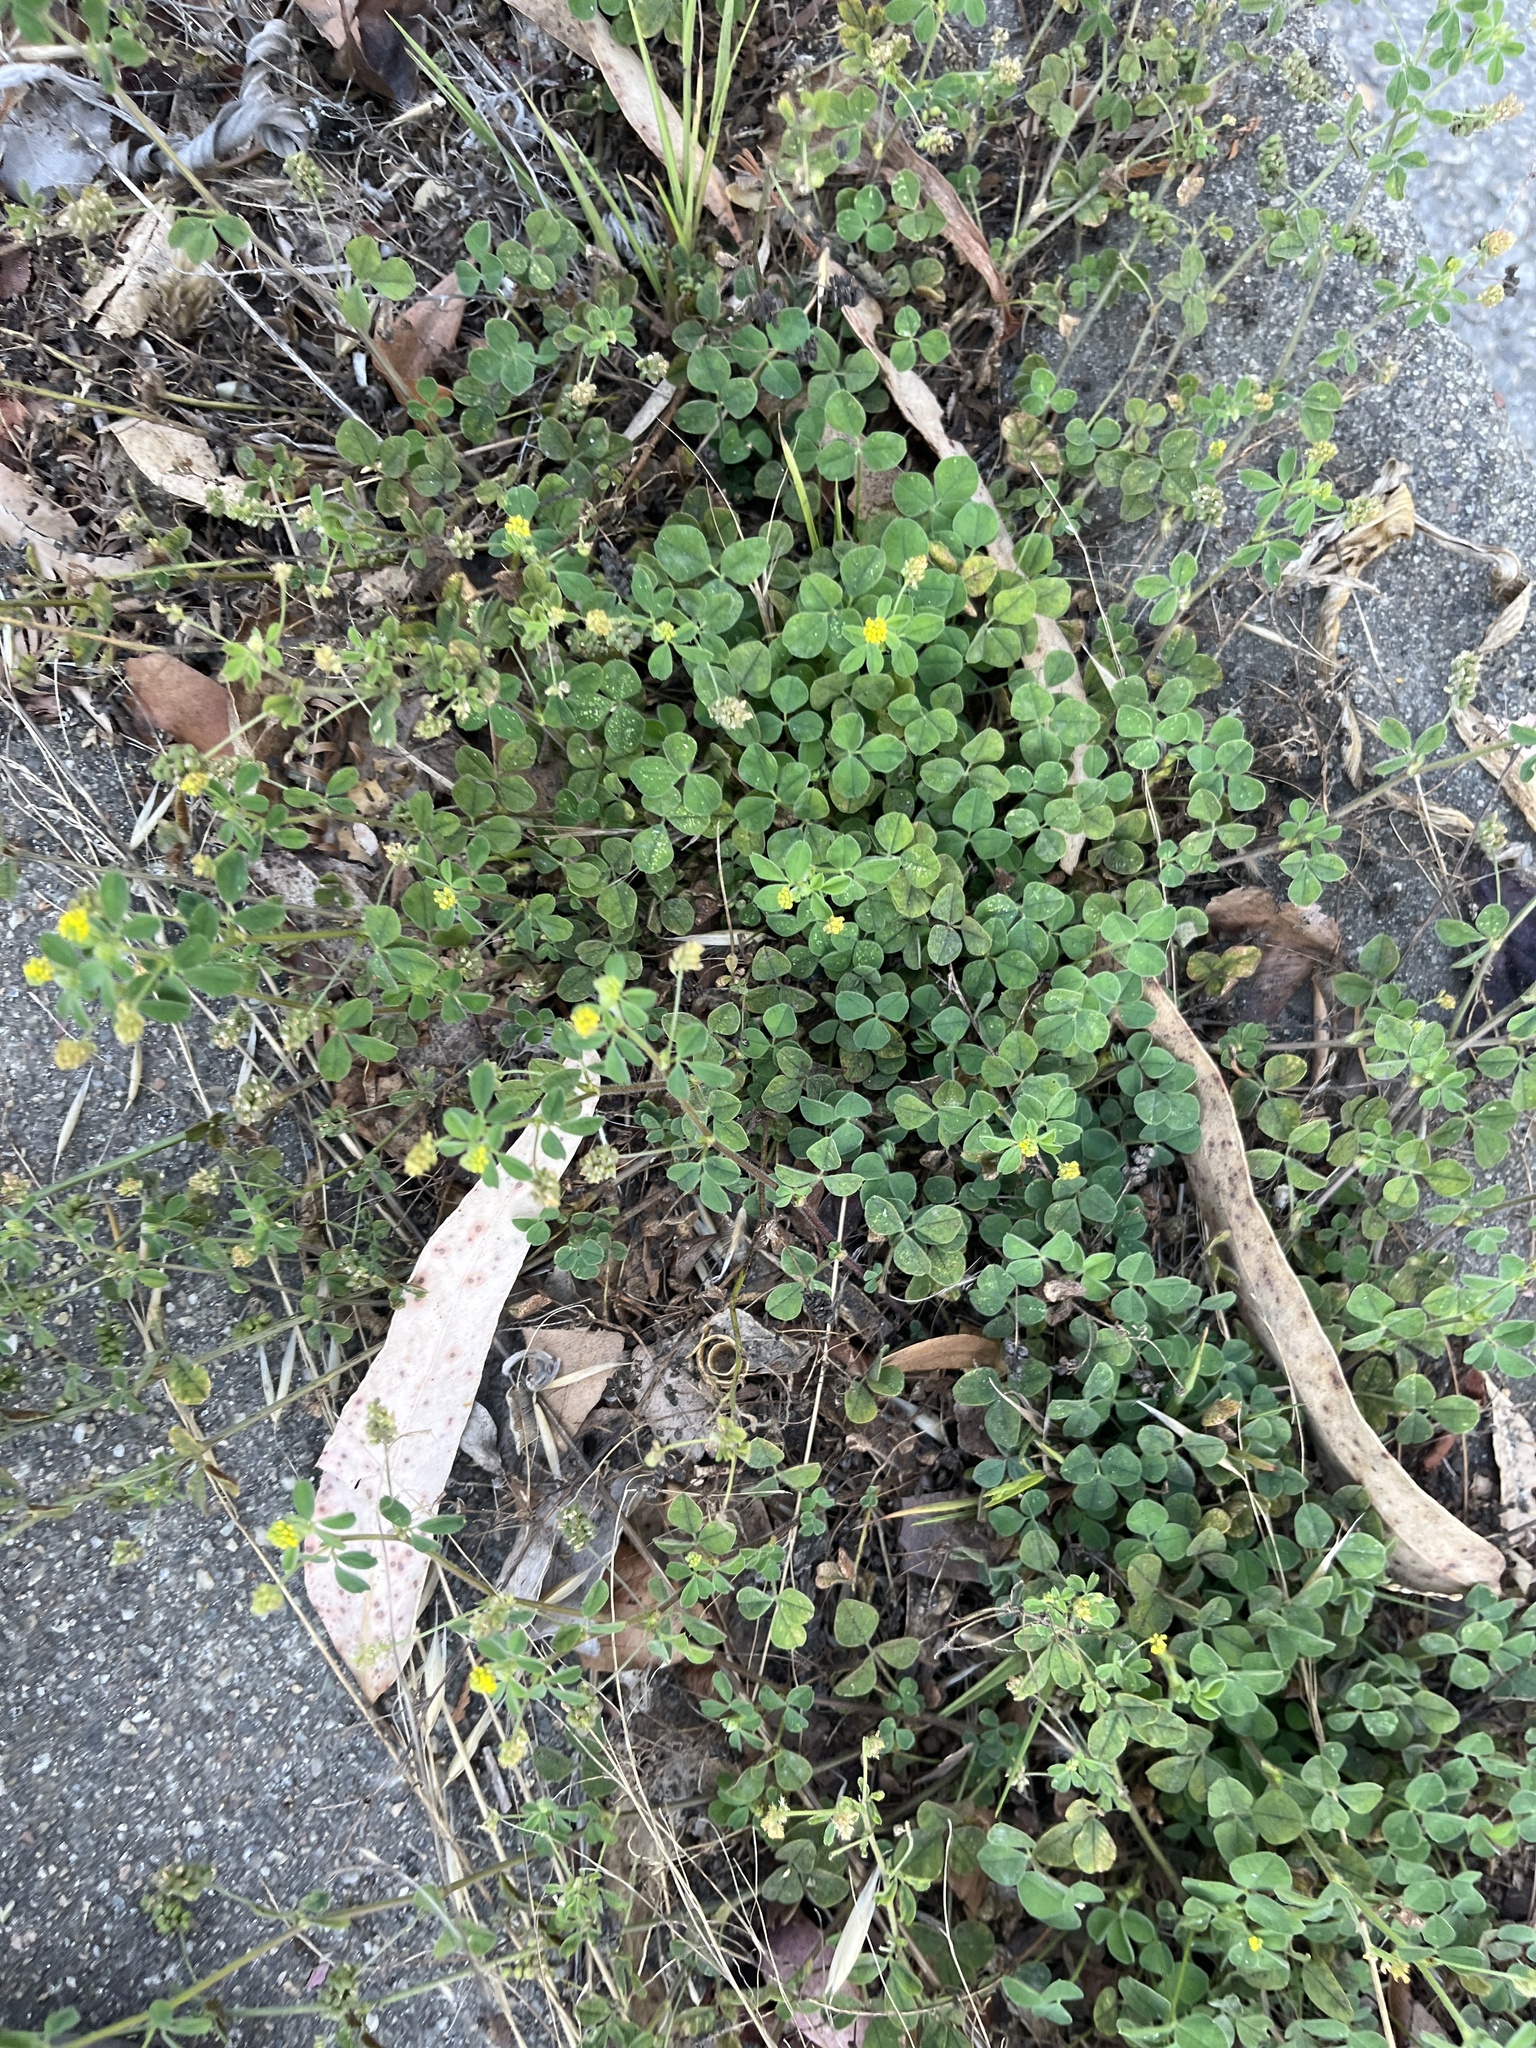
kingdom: Plantae
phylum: Tracheophyta
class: Magnoliopsida
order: Fabales
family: Fabaceae
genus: Medicago
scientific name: Medicago lupulina
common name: Black medick
